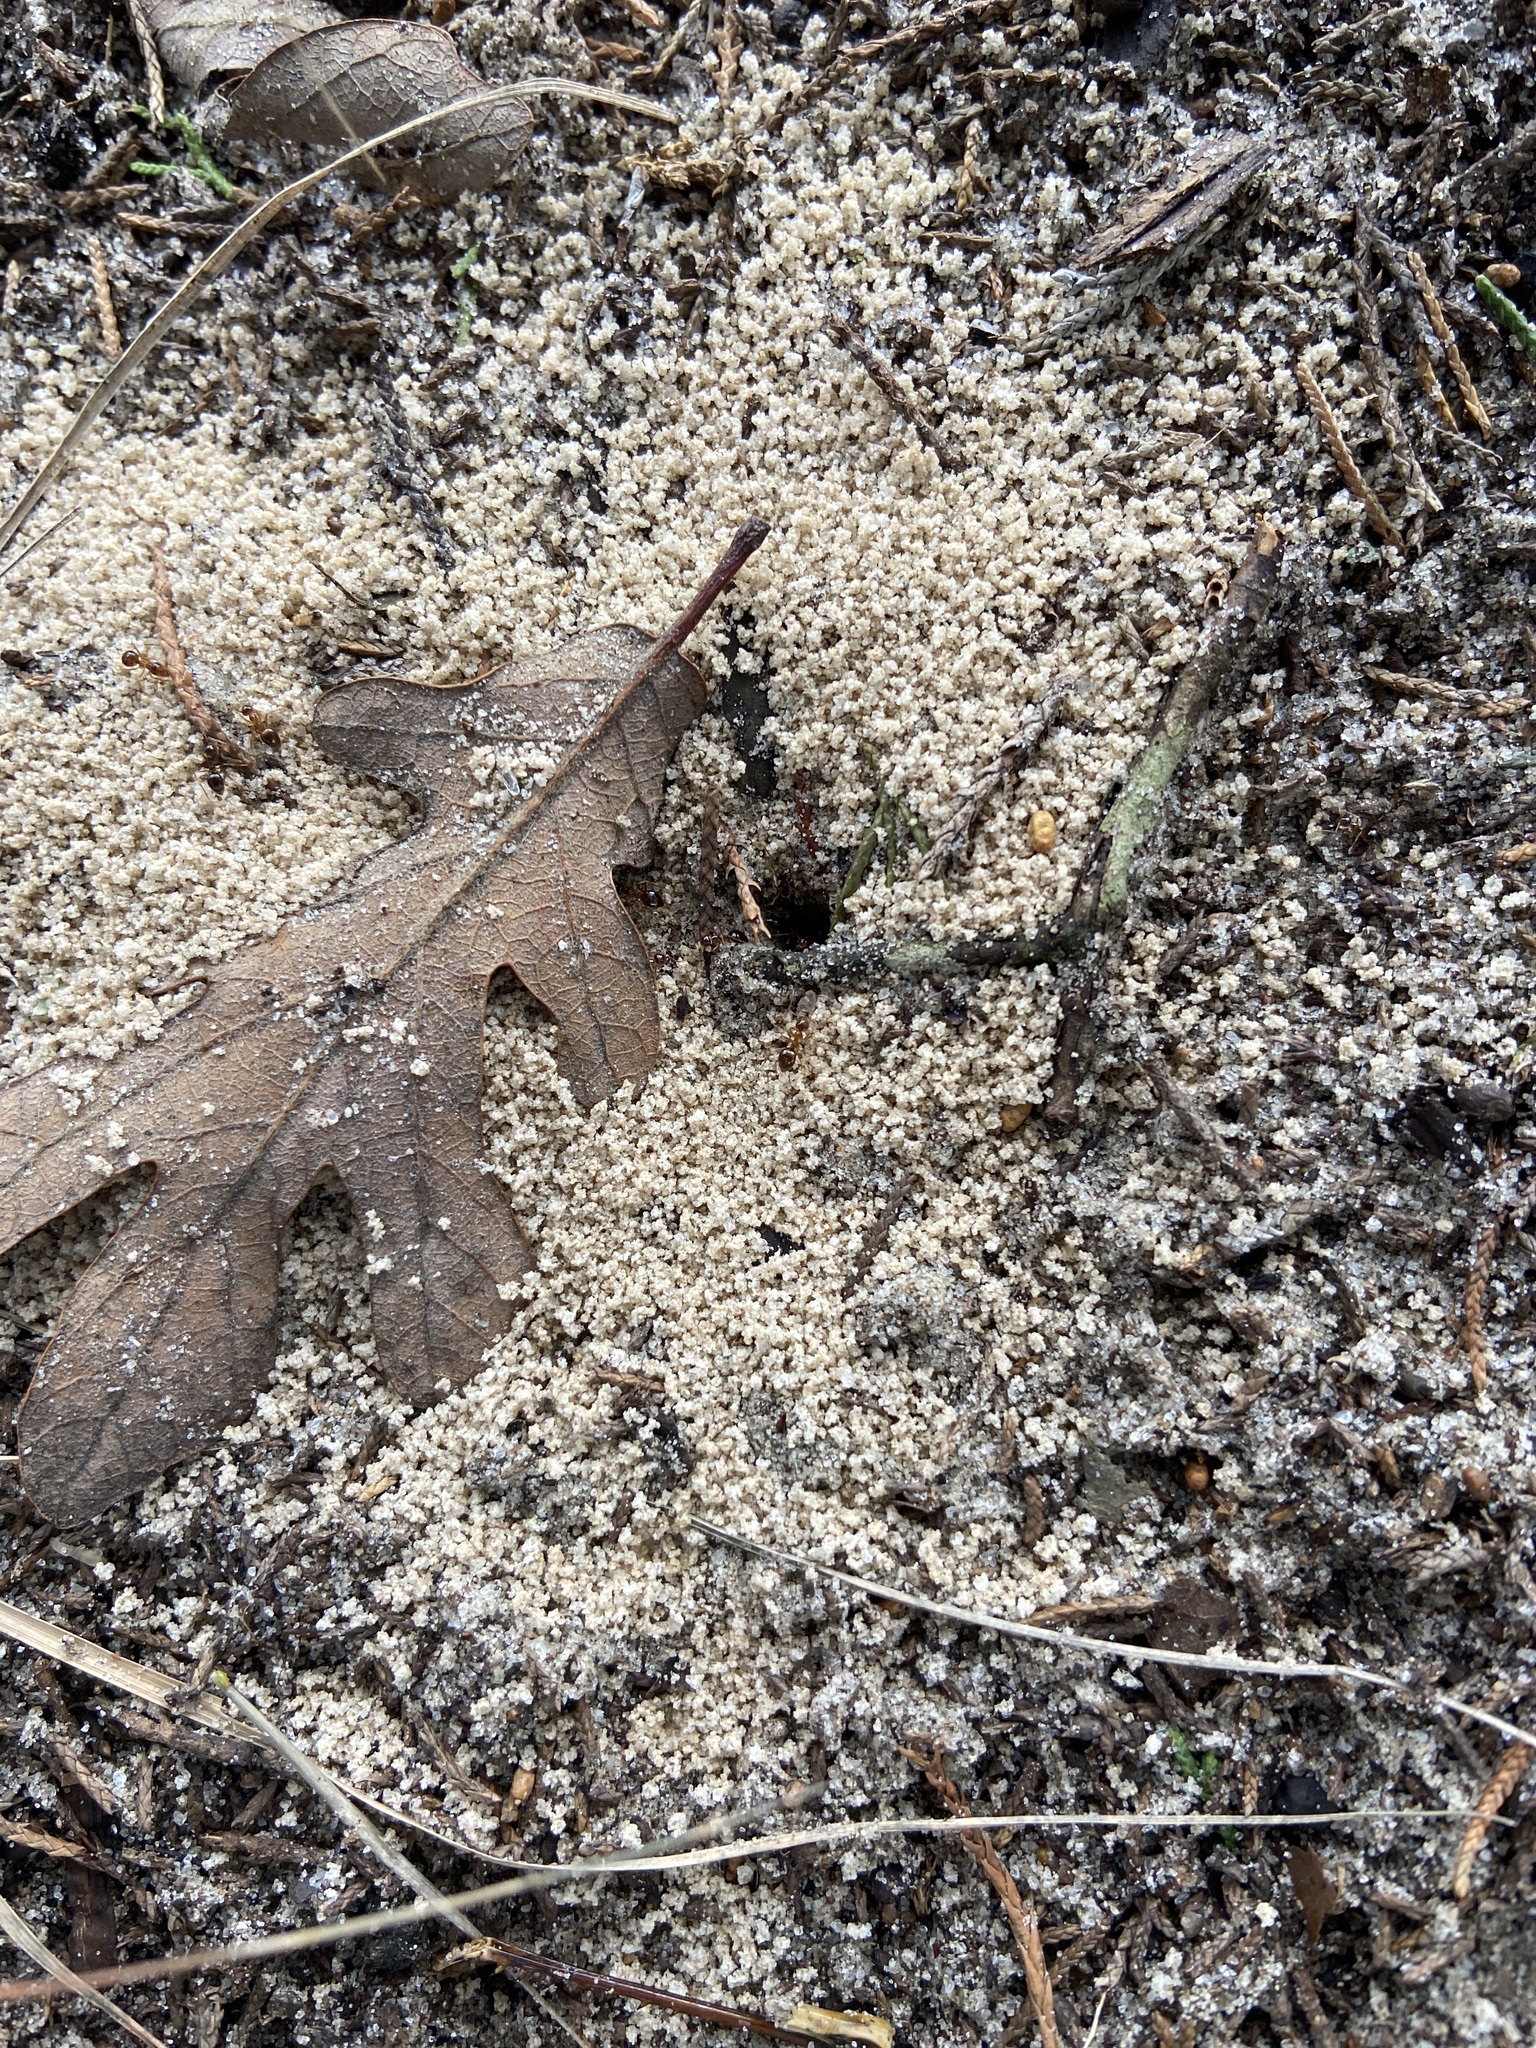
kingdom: Animalia
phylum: Arthropoda
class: Insecta
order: Hymenoptera
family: Formicidae
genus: Prenolepis
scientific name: Prenolepis imparis
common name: Small honey ant
